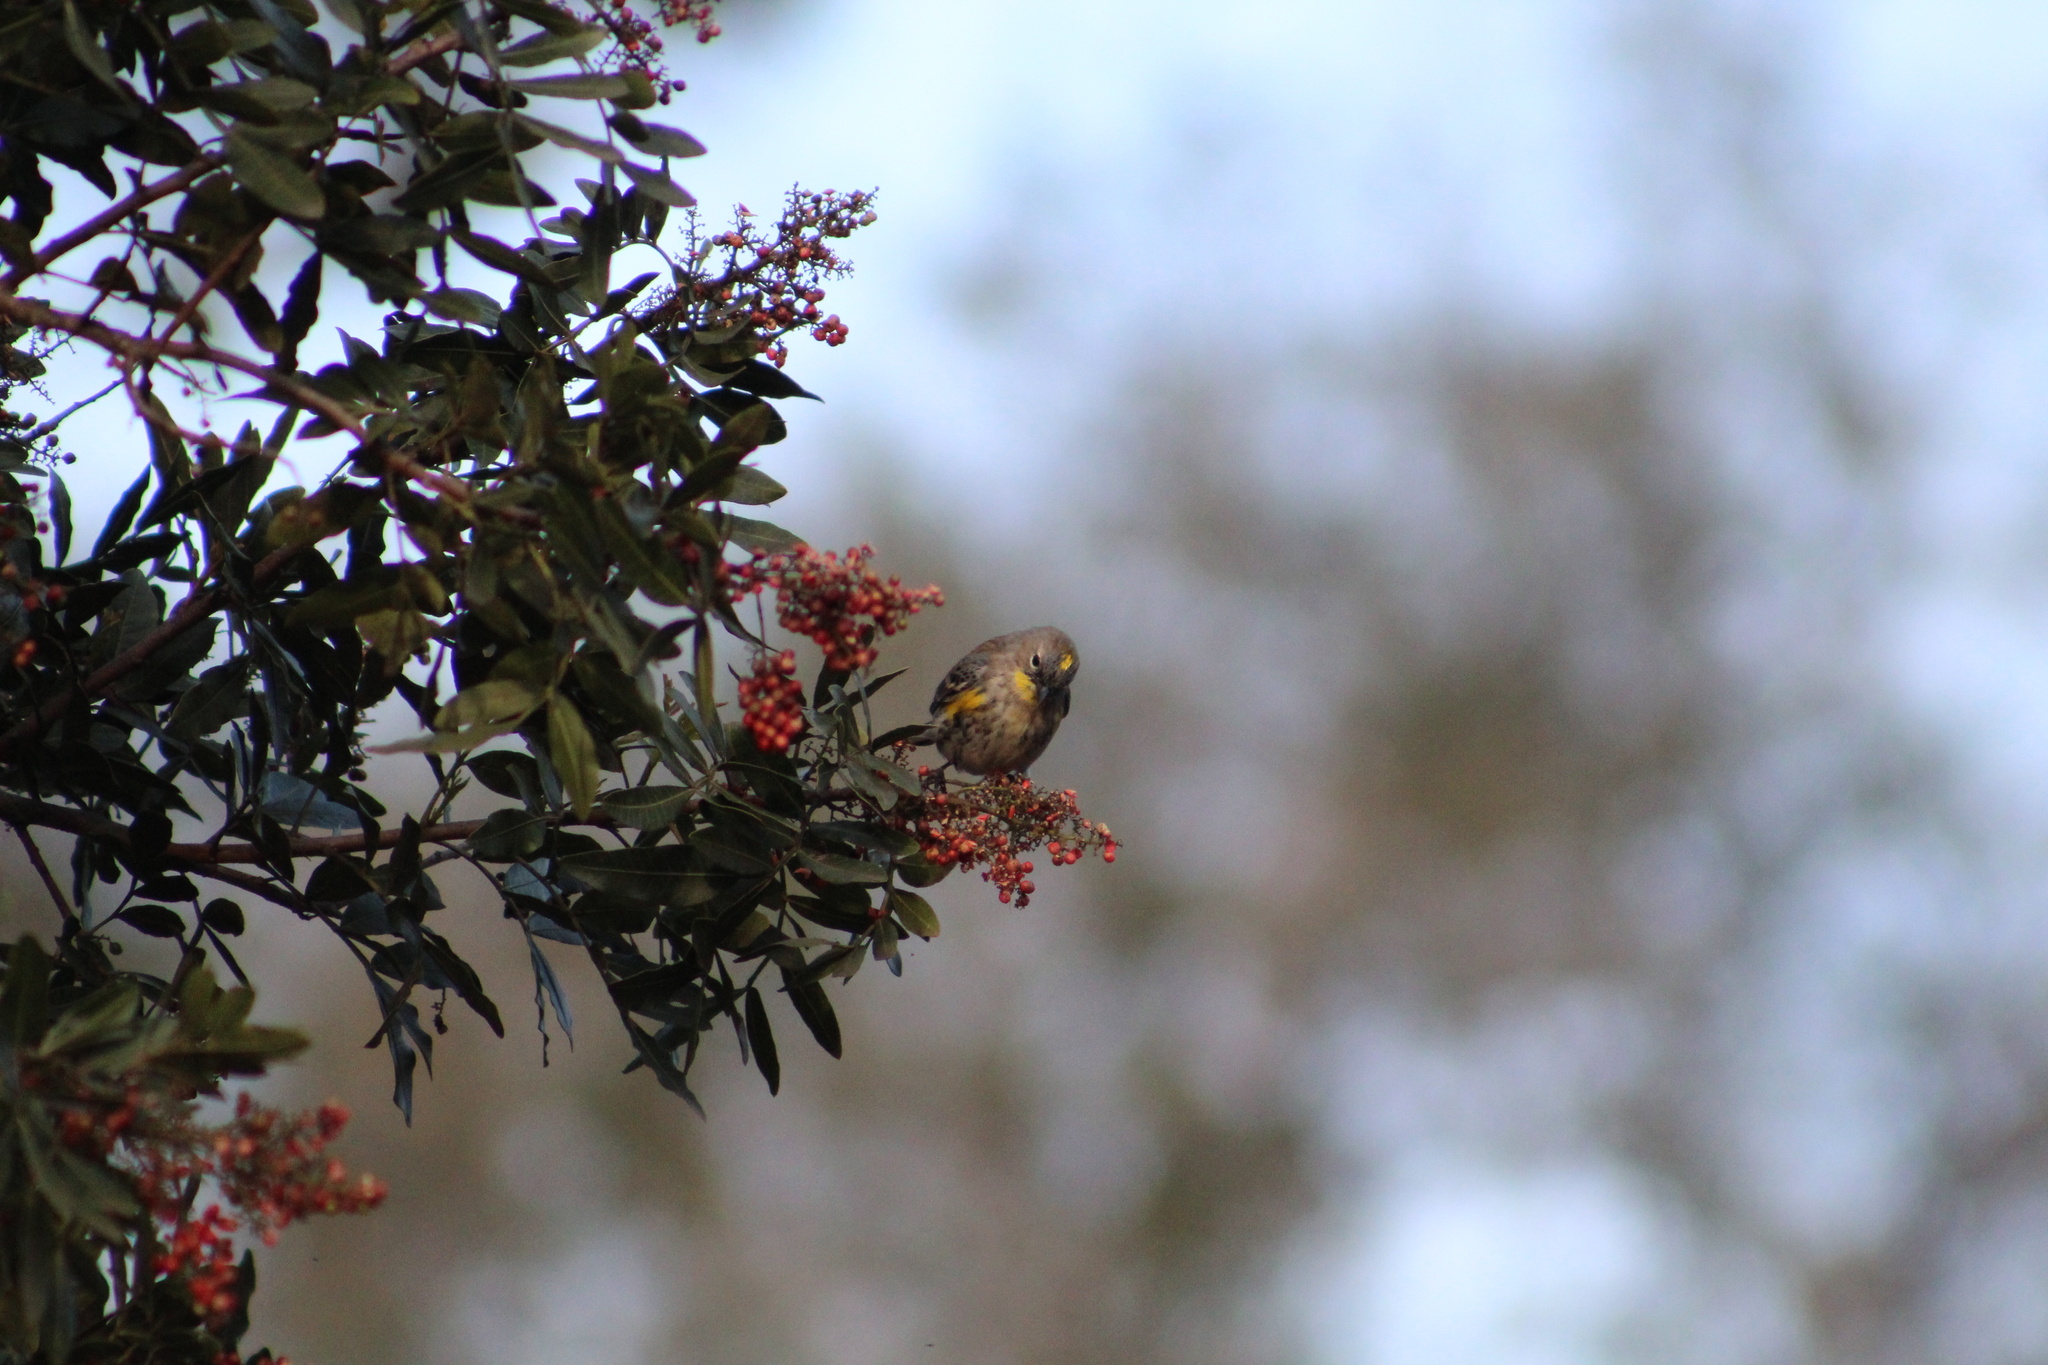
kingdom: Animalia
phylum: Chordata
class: Aves
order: Passeriformes
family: Parulidae
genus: Setophaga
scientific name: Setophaga coronata
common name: Myrtle warbler
